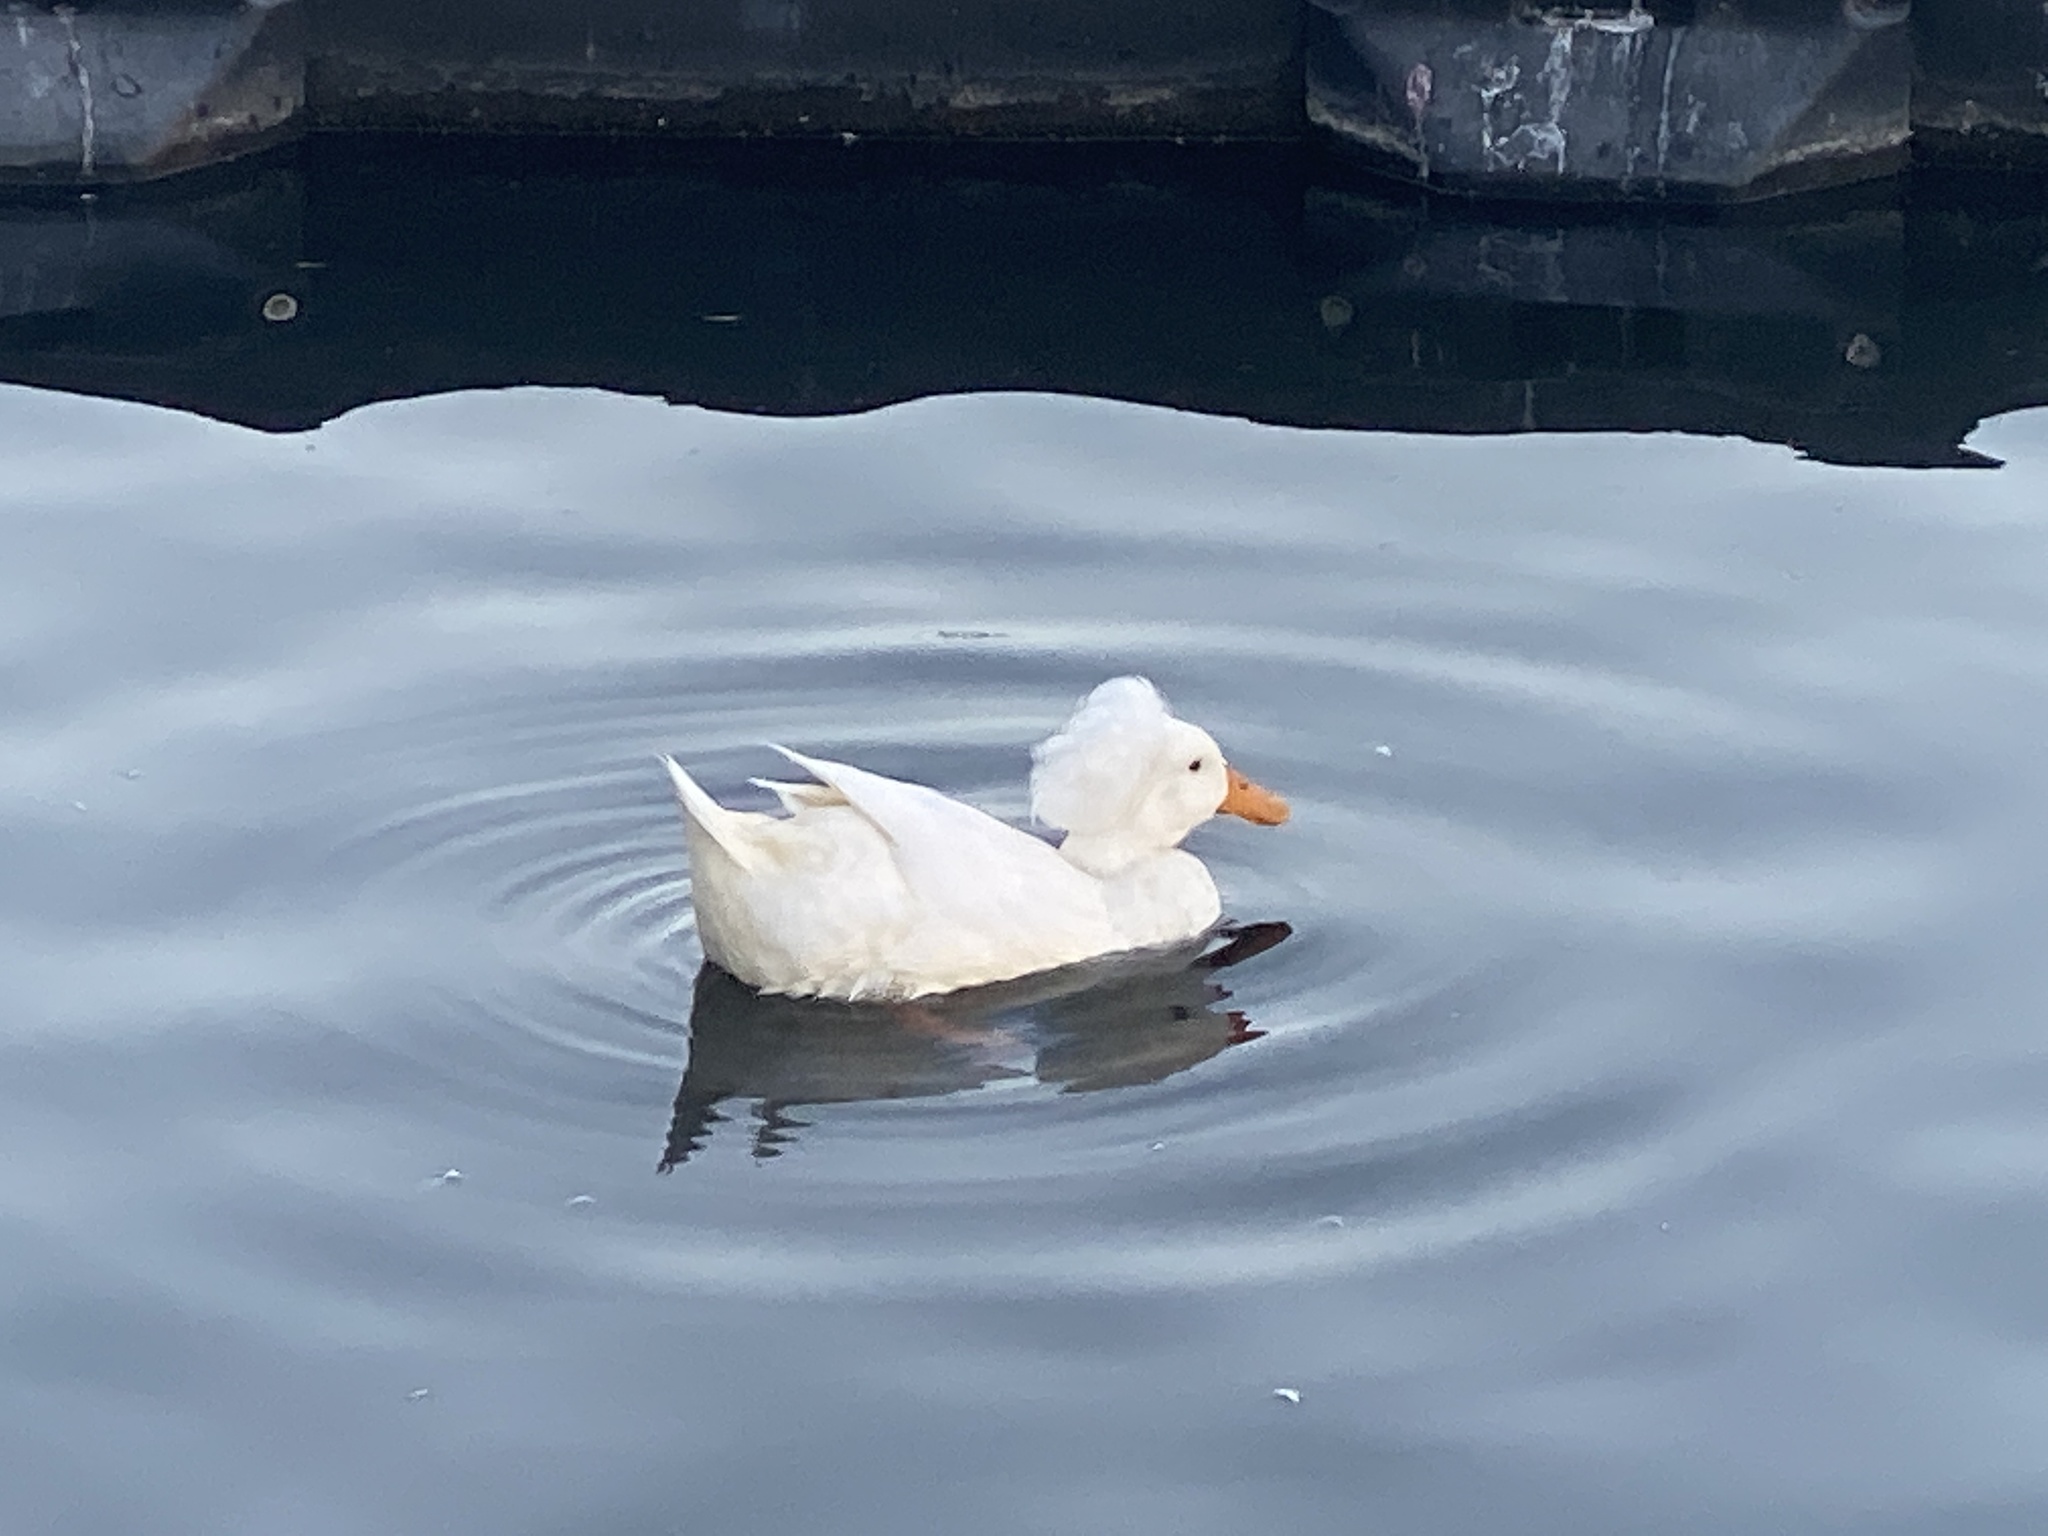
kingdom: Animalia
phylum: Chordata
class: Aves
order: Anseriformes
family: Anatidae
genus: Anas
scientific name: Anas platyrhynchos
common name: Mallard
